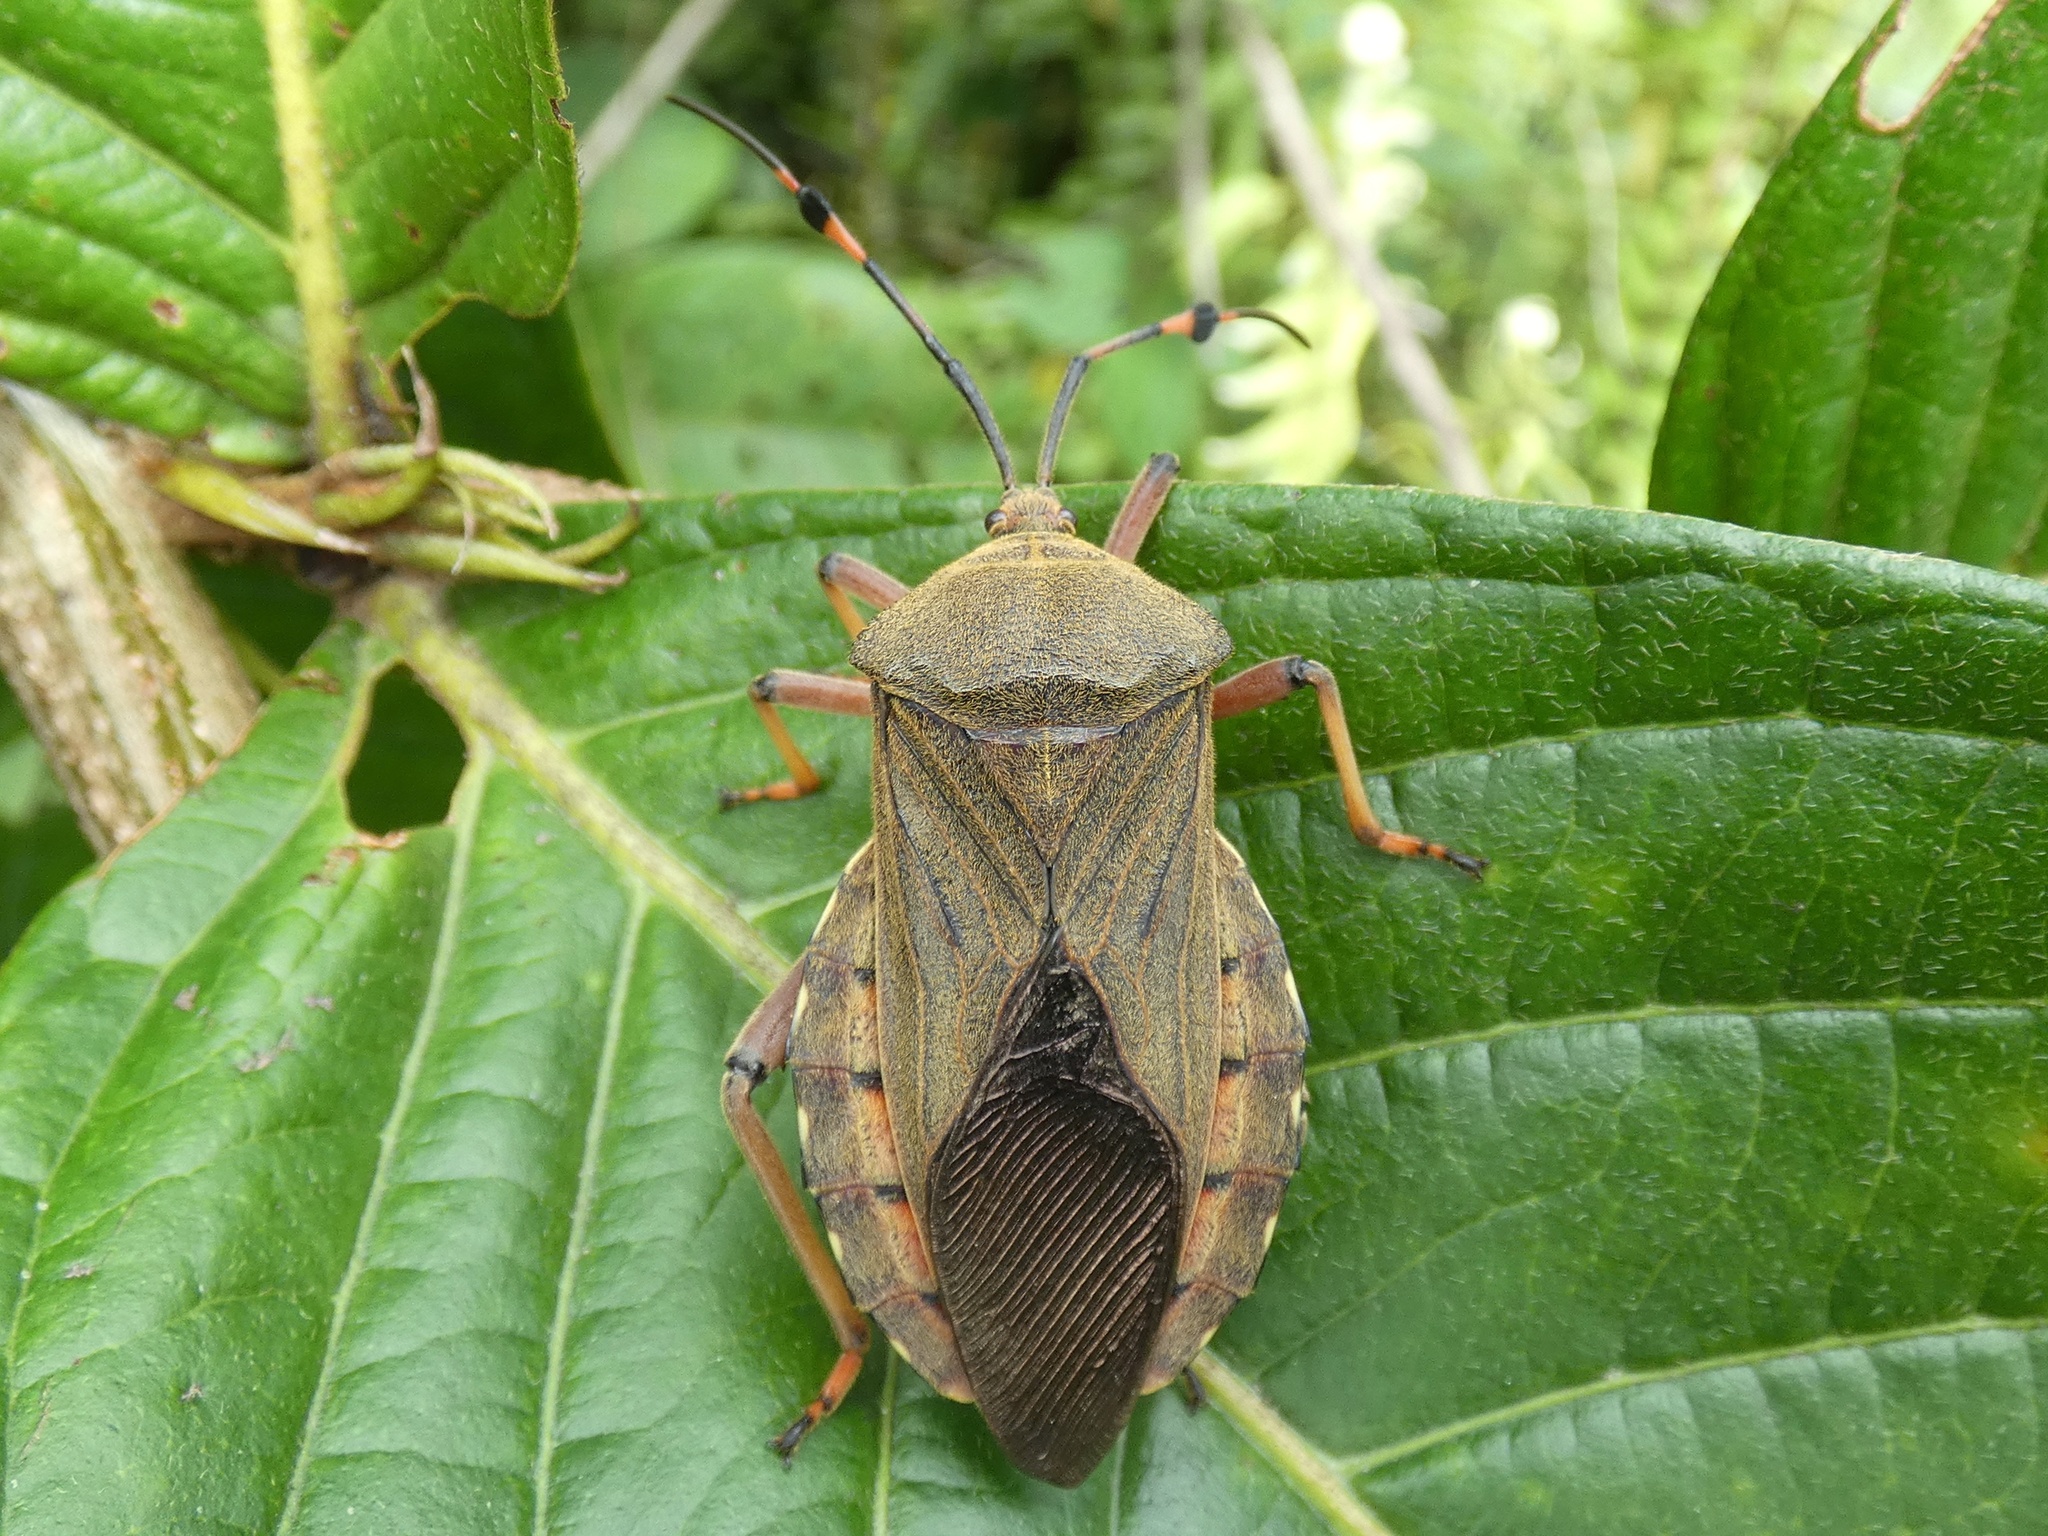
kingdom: Animalia
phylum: Arthropoda
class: Insecta
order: Hemiptera
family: Coreidae
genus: Pachylis
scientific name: Pachylis laticornis
